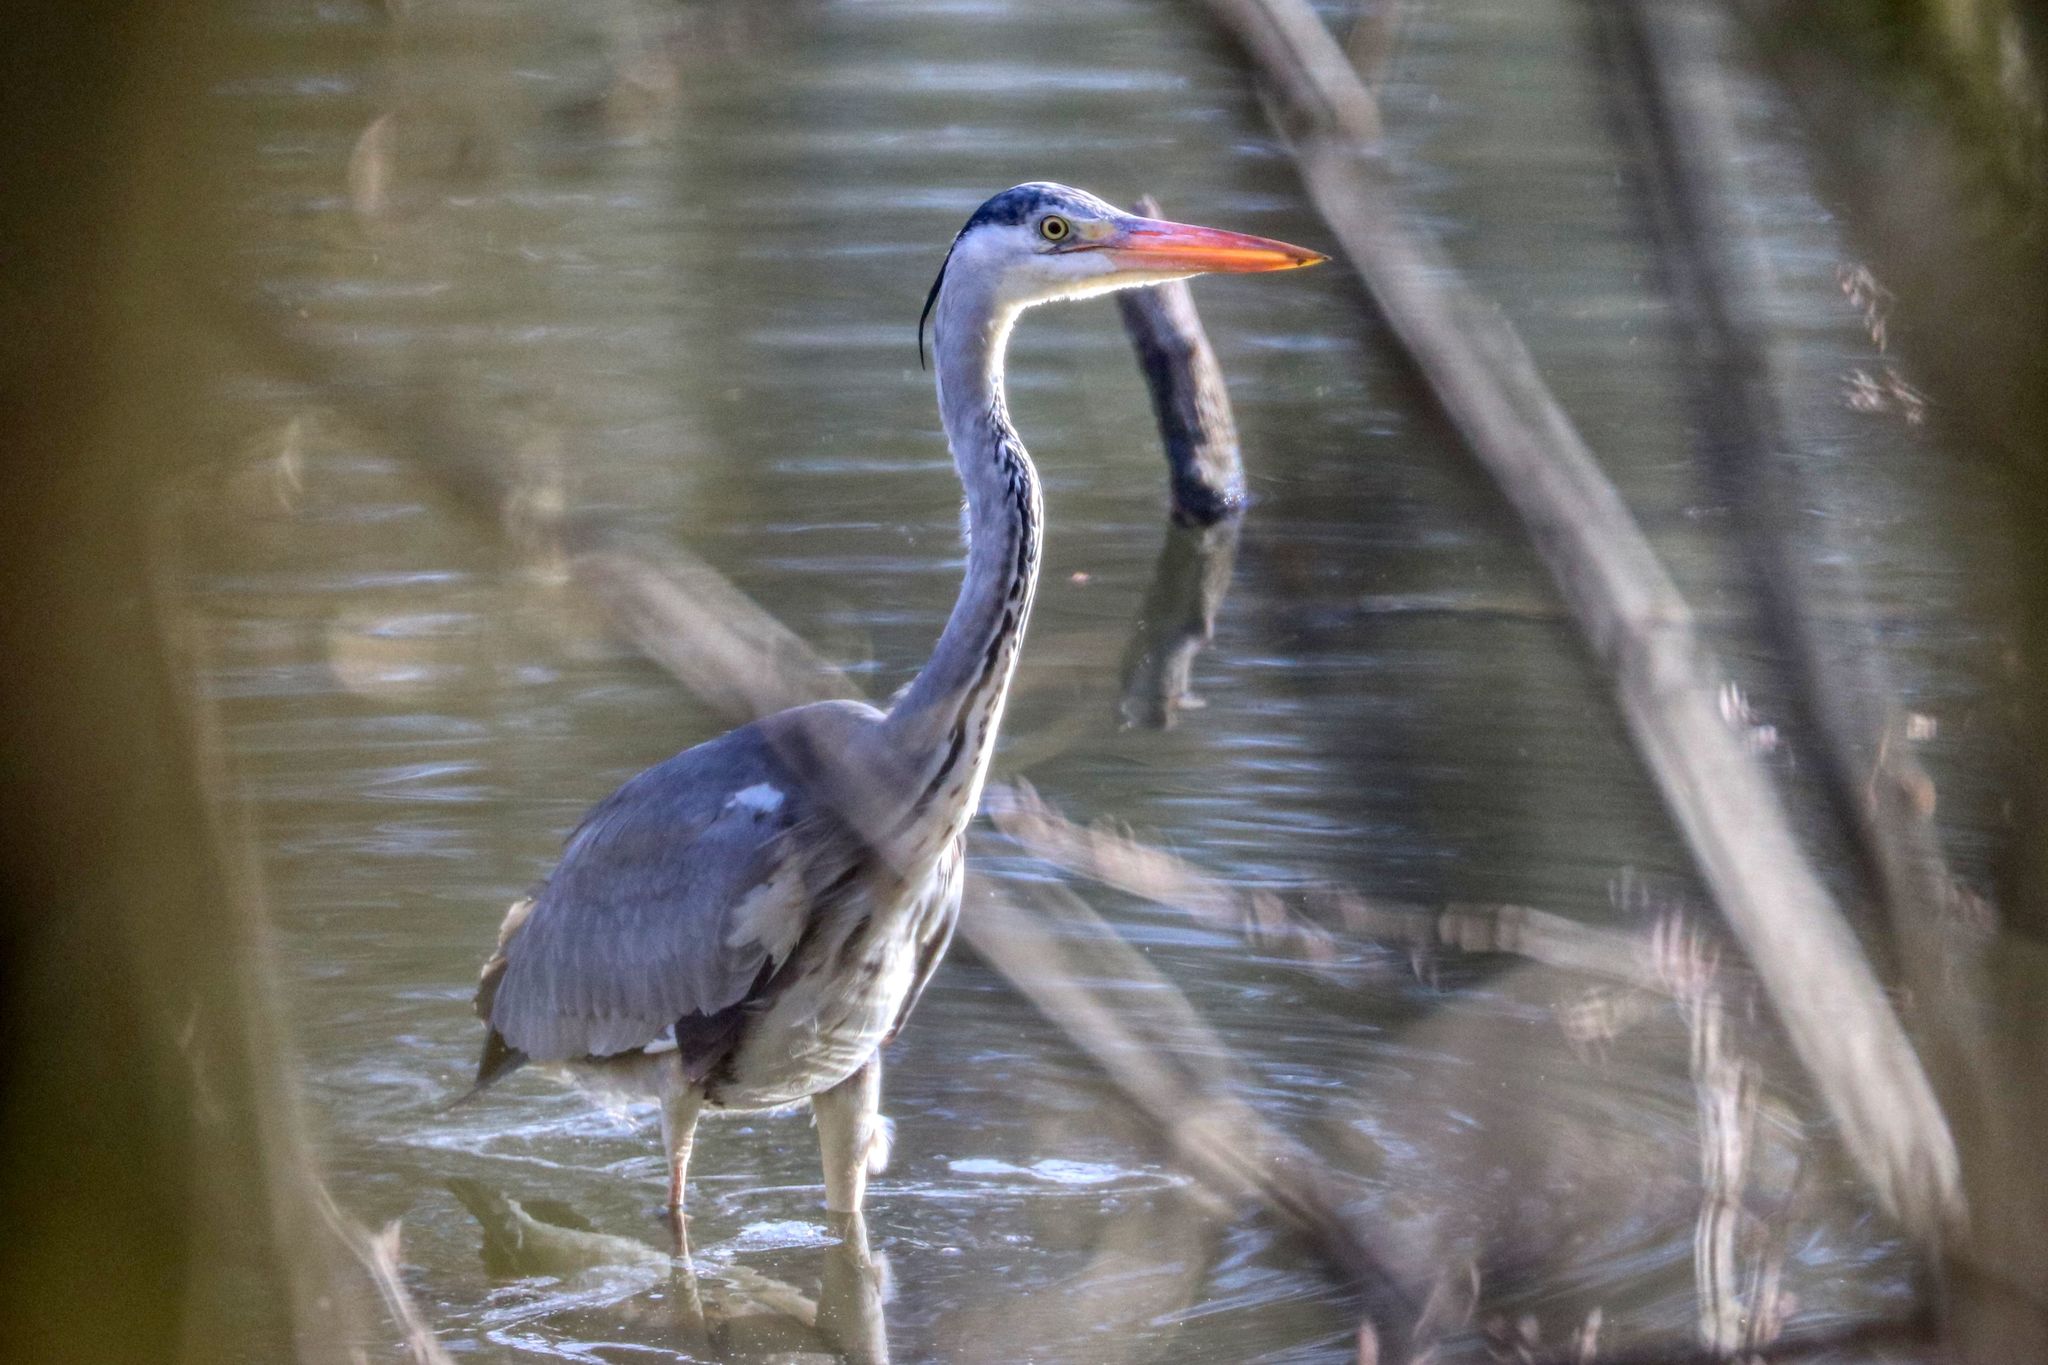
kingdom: Animalia
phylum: Chordata
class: Aves
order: Pelecaniformes
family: Ardeidae
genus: Ardea
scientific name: Ardea cinerea
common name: Grey heron
